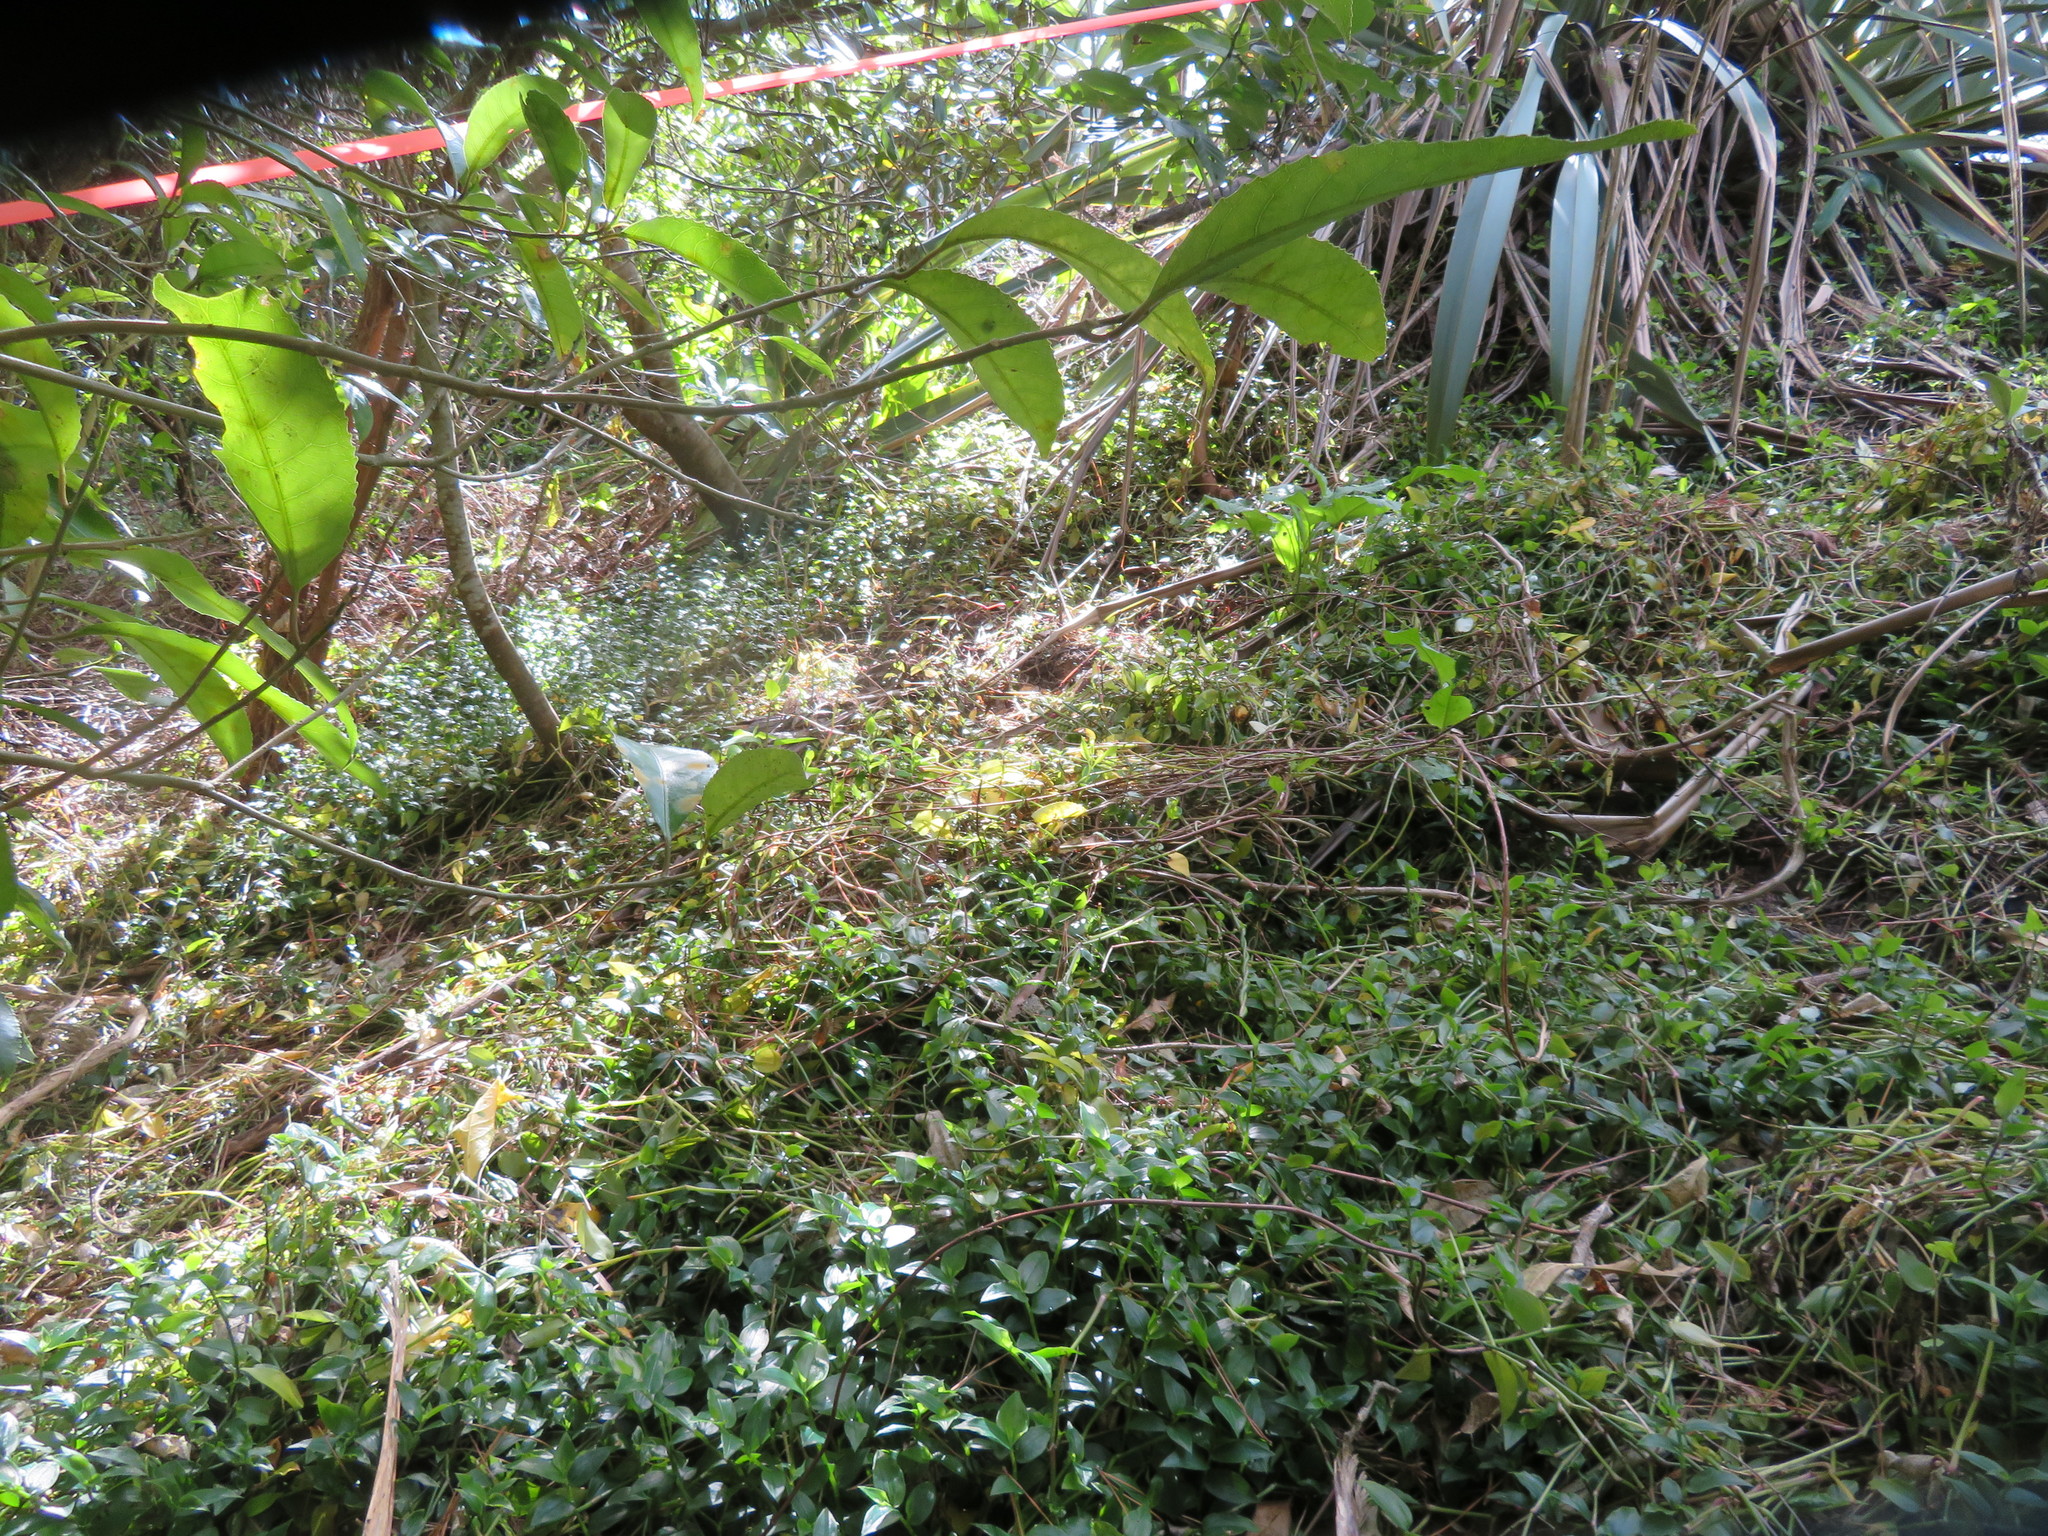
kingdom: Plantae
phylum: Tracheophyta
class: Liliopsida
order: Commelinales
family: Commelinaceae
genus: Tradescantia
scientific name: Tradescantia fluminensis
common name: Wandering-jew
